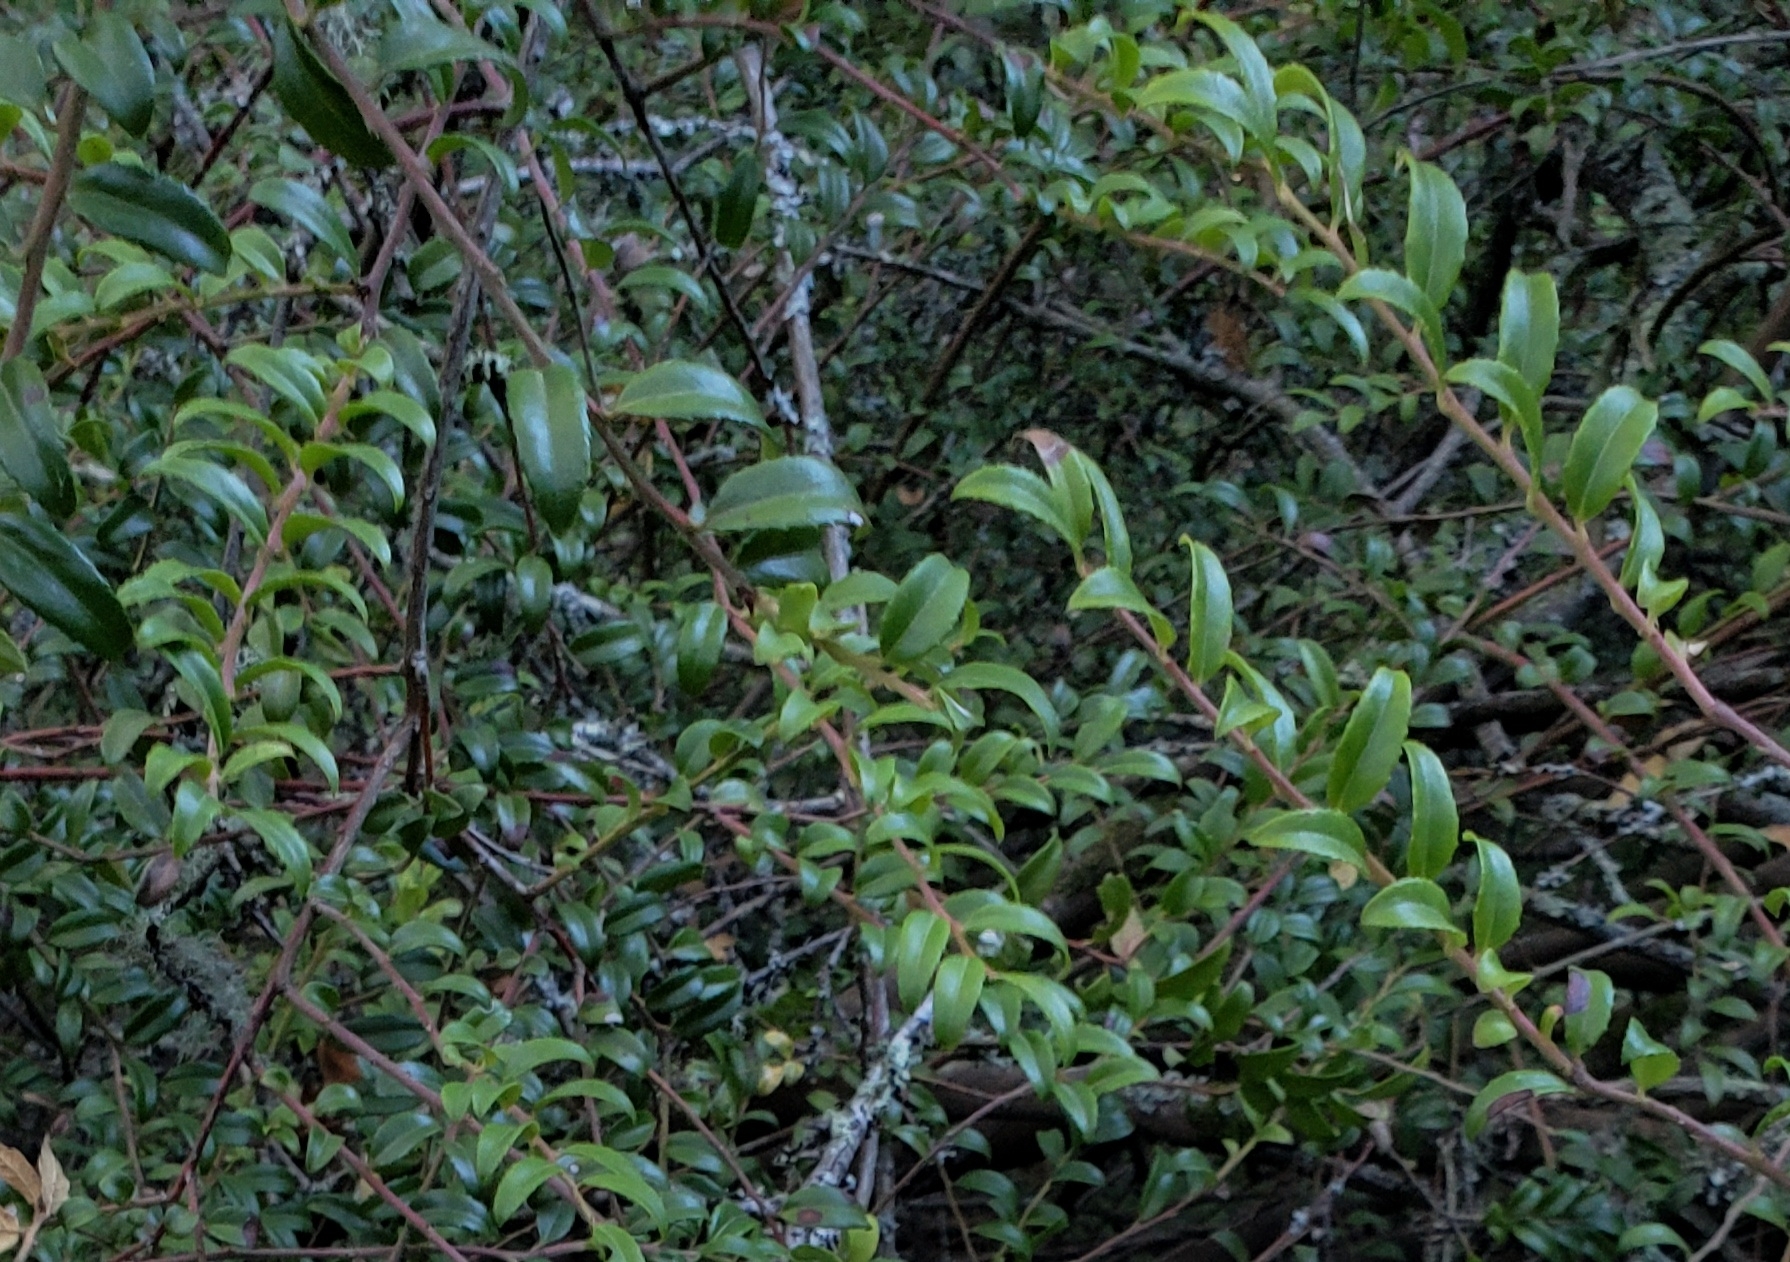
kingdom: Plantae
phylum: Tracheophyta
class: Magnoliopsida
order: Ericales
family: Ericaceae
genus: Vaccinium
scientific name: Vaccinium ovatum
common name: California-huckleberry
